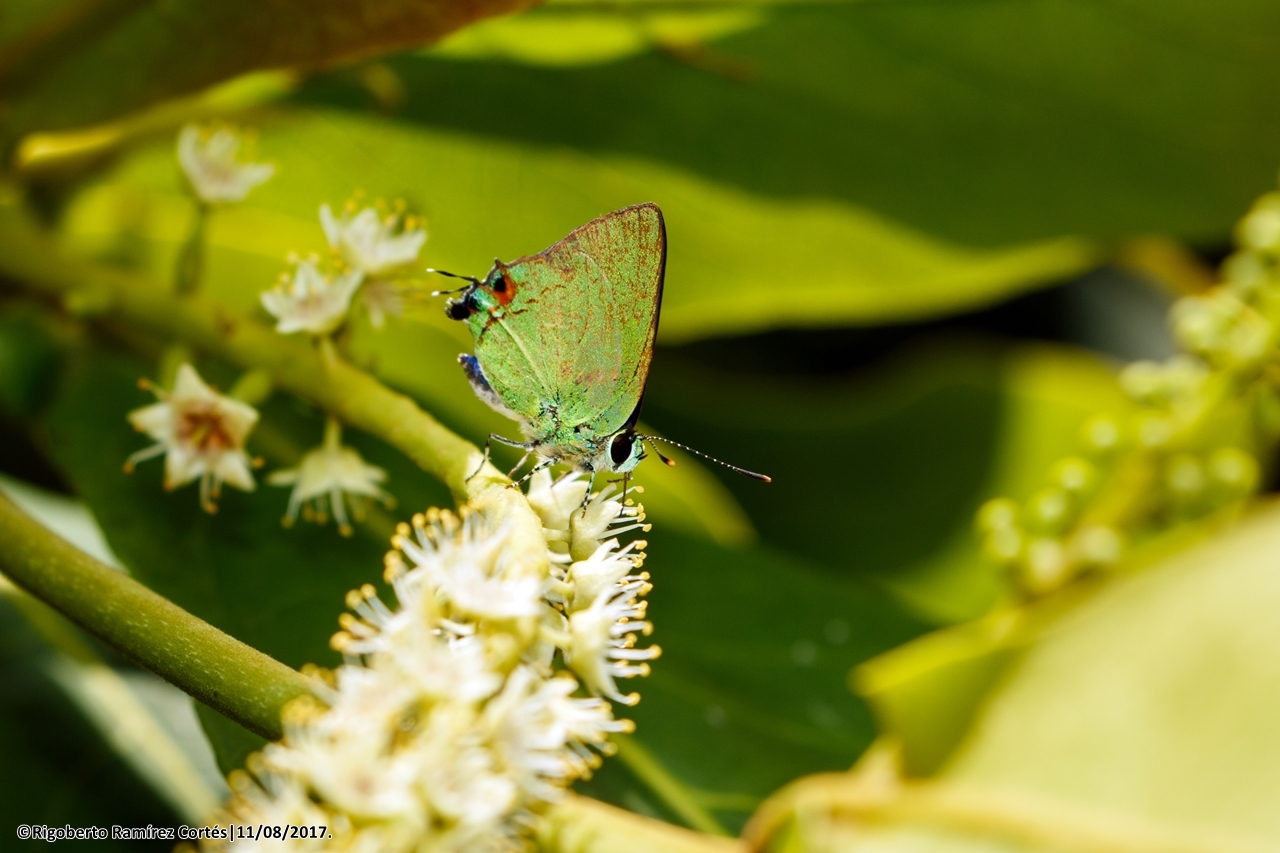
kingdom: Animalia
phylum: Arthropoda
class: Insecta
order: Lepidoptera
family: Lycaenidae
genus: Chalybs
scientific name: Chalybs janias
